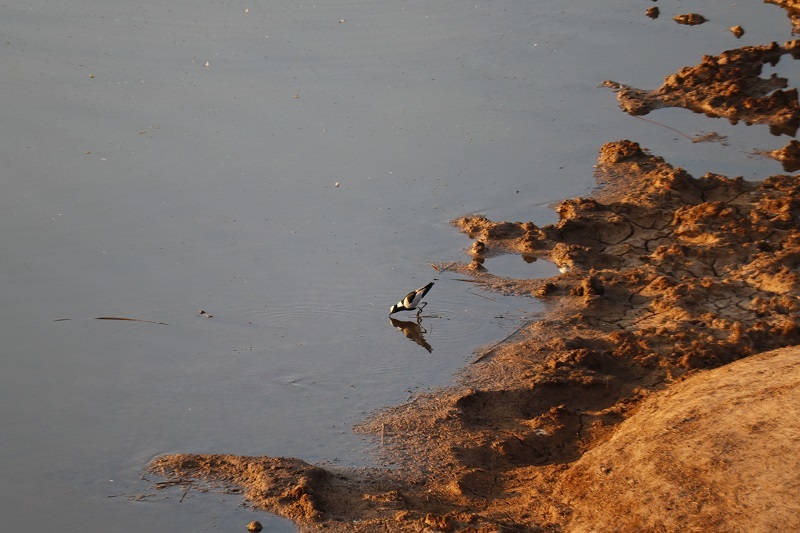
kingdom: Animalia
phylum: Chordata
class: Aves
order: Charadriiformes
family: Charadriidae
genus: Vanellus
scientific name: Vanellus armatus
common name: Blacksmith lapwing
